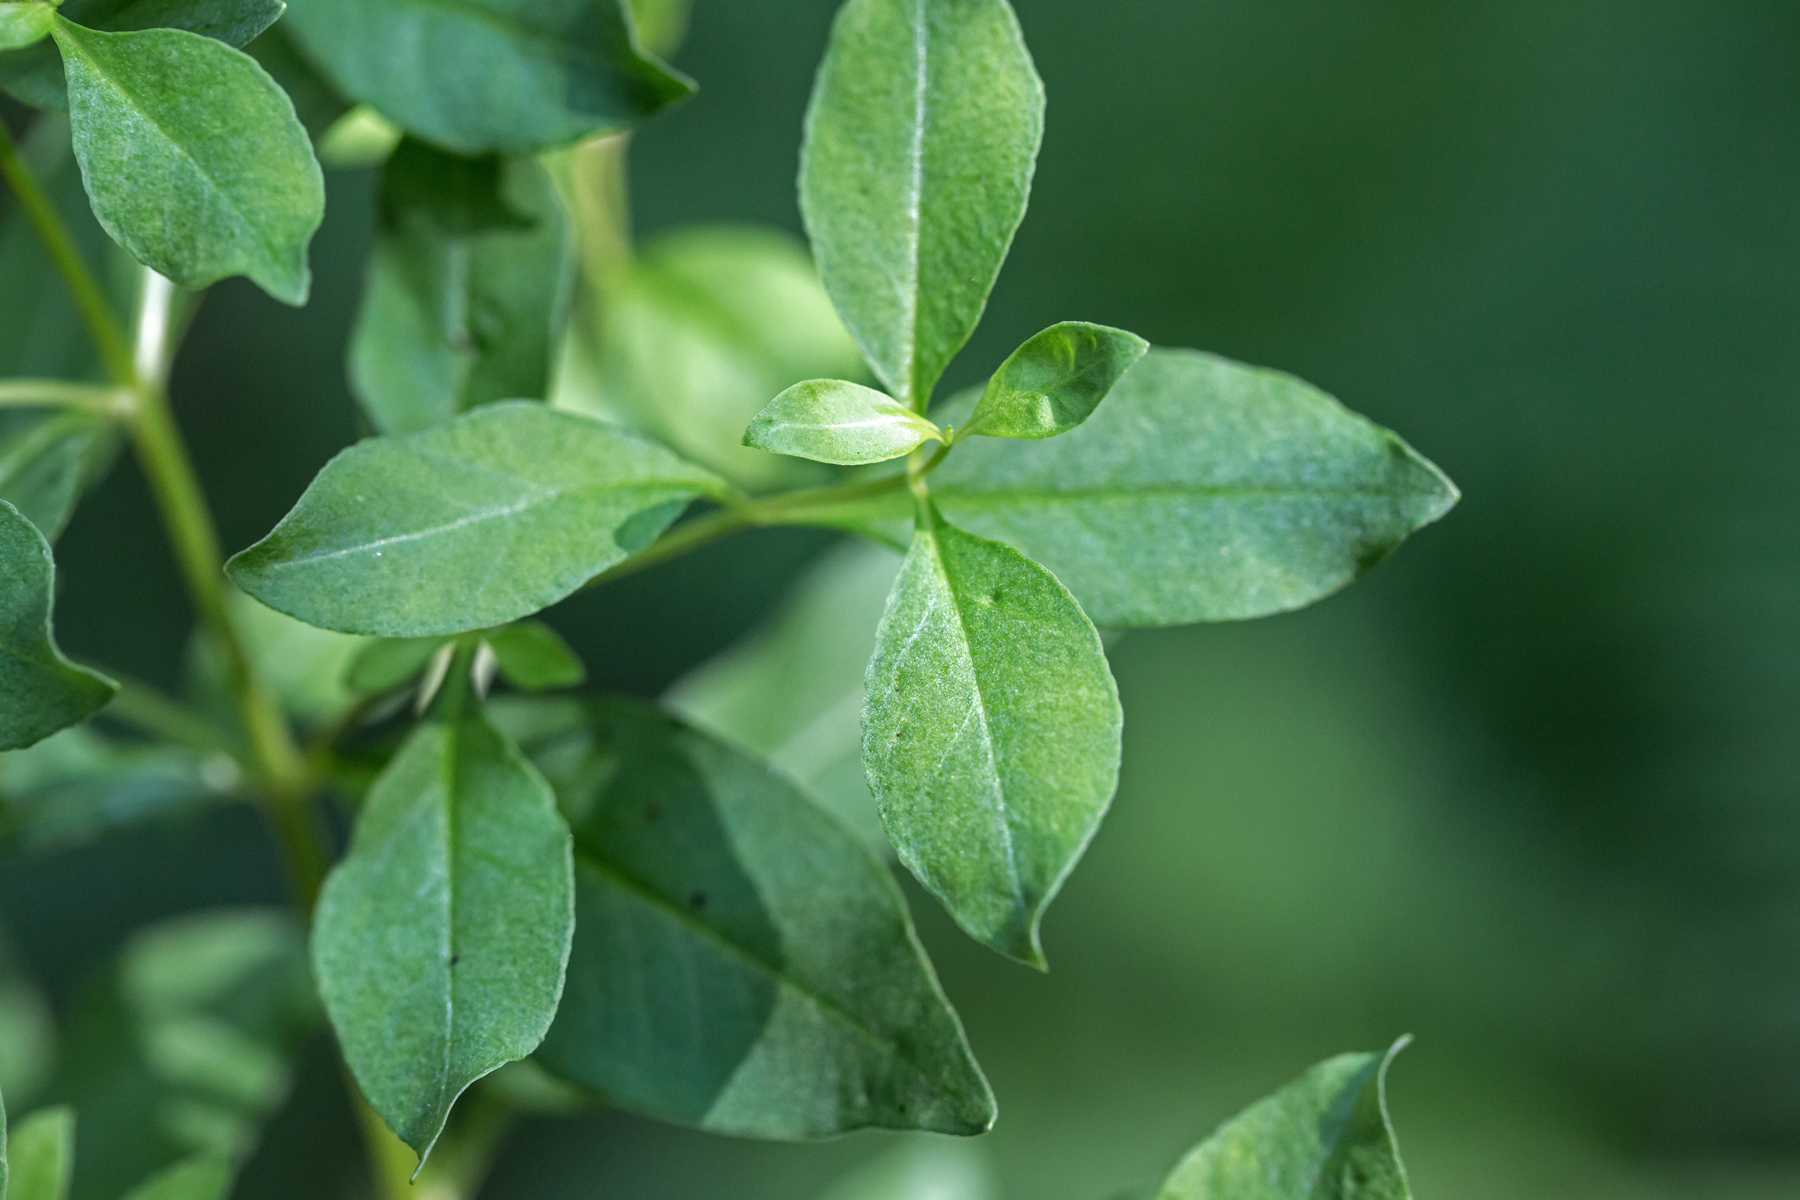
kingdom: Plantae
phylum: Tracheophyta
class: Magnoliopsida
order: Ericales
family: Primulaceae
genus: Lysimachia
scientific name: Lysimachia terrestris
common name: Lake loosestrife
